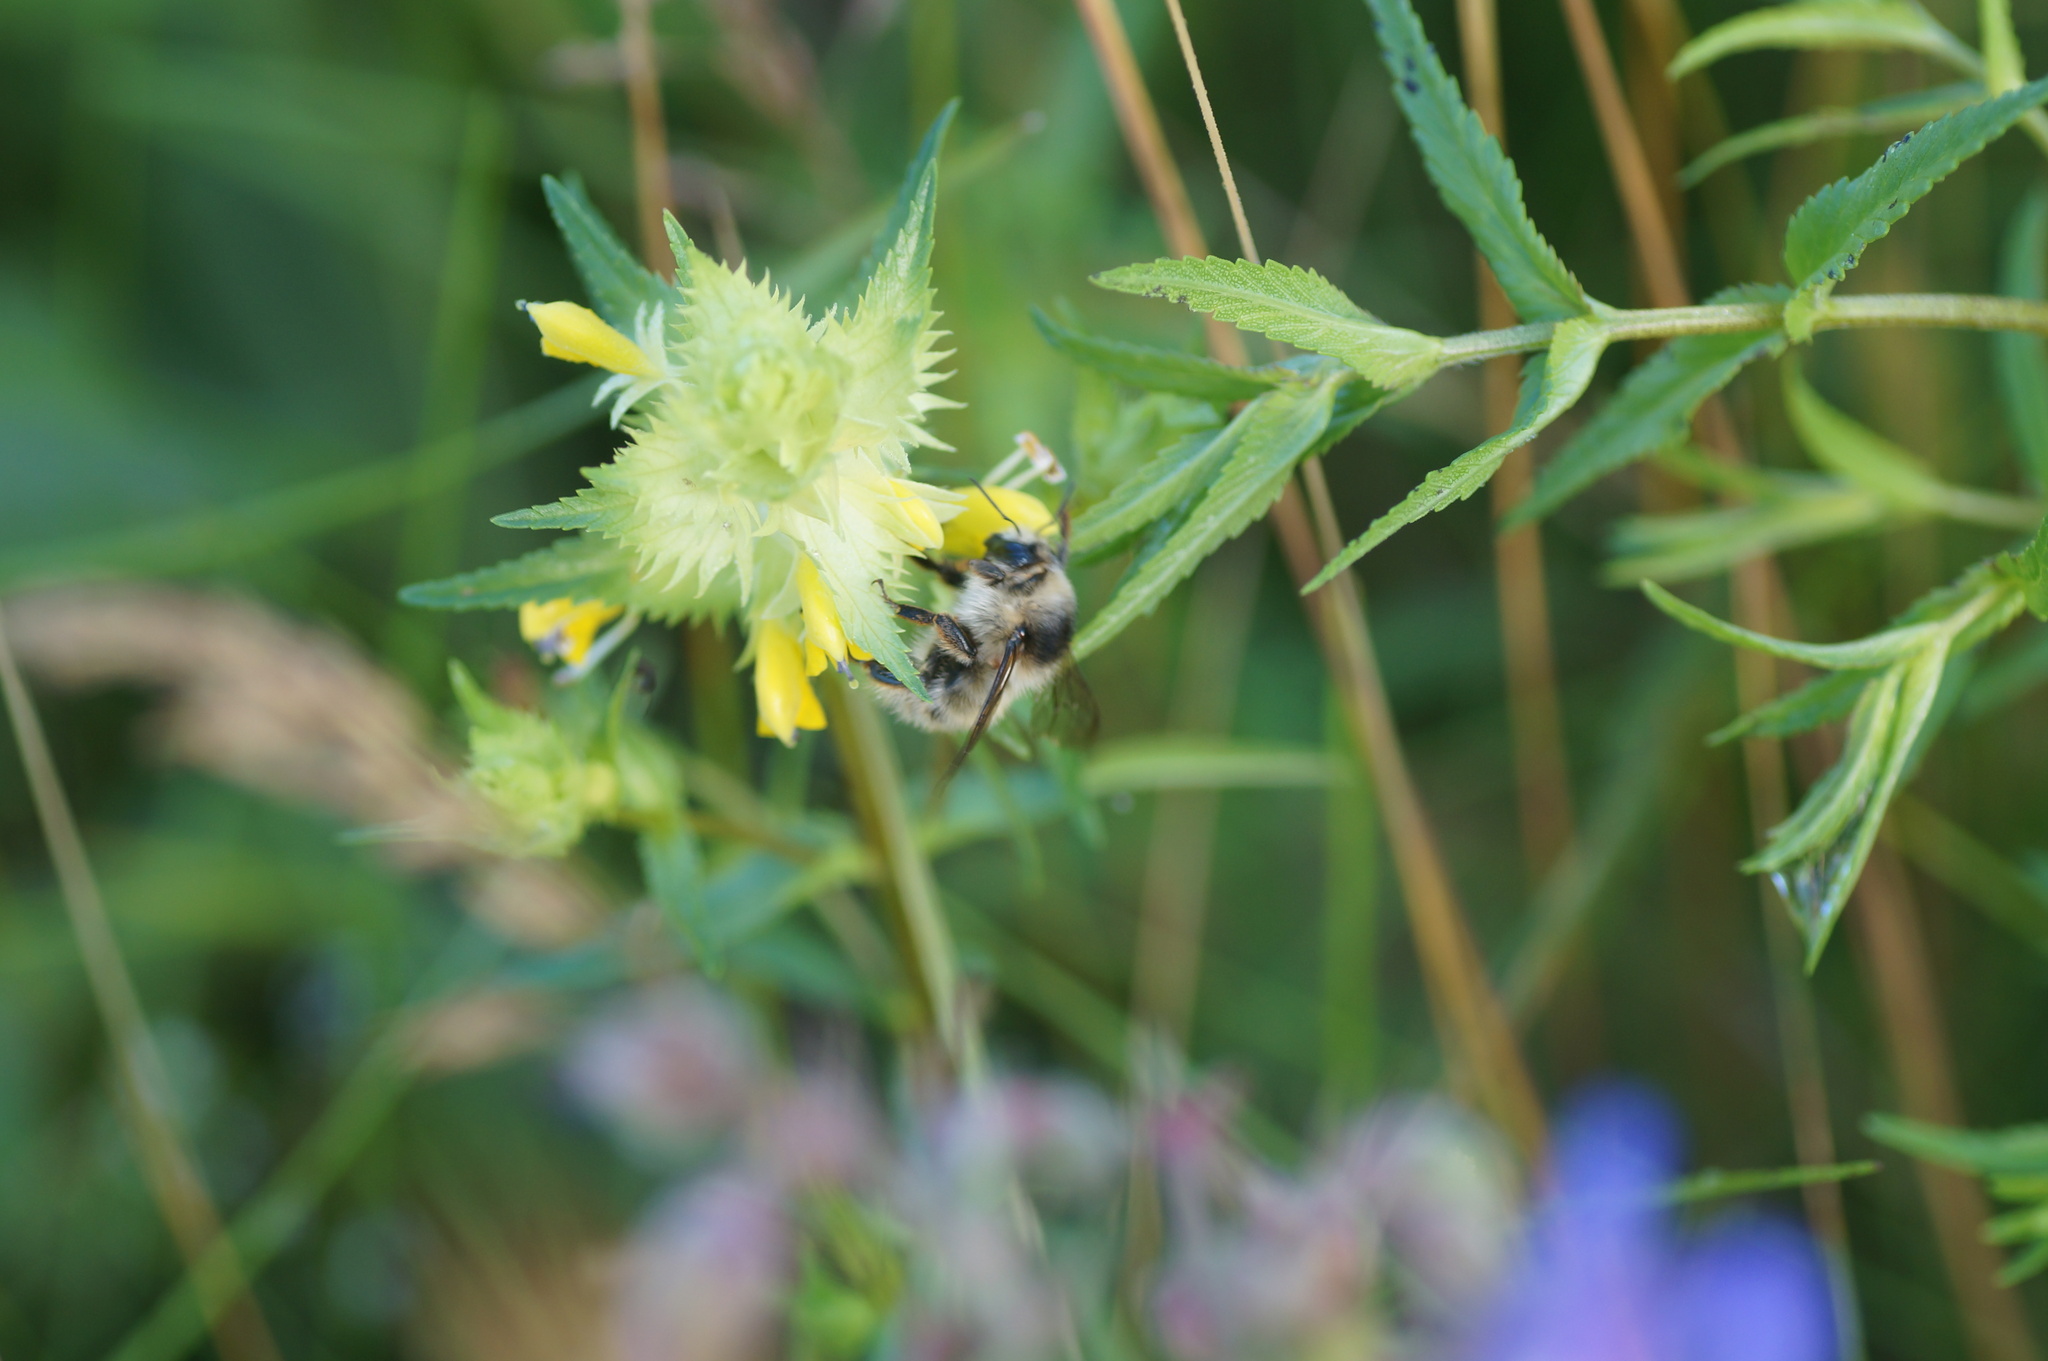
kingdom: Animalia
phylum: Arthropoda
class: Insecta
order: Hymenoptera
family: Apidae
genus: Bombus
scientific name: Bombus veteranus
